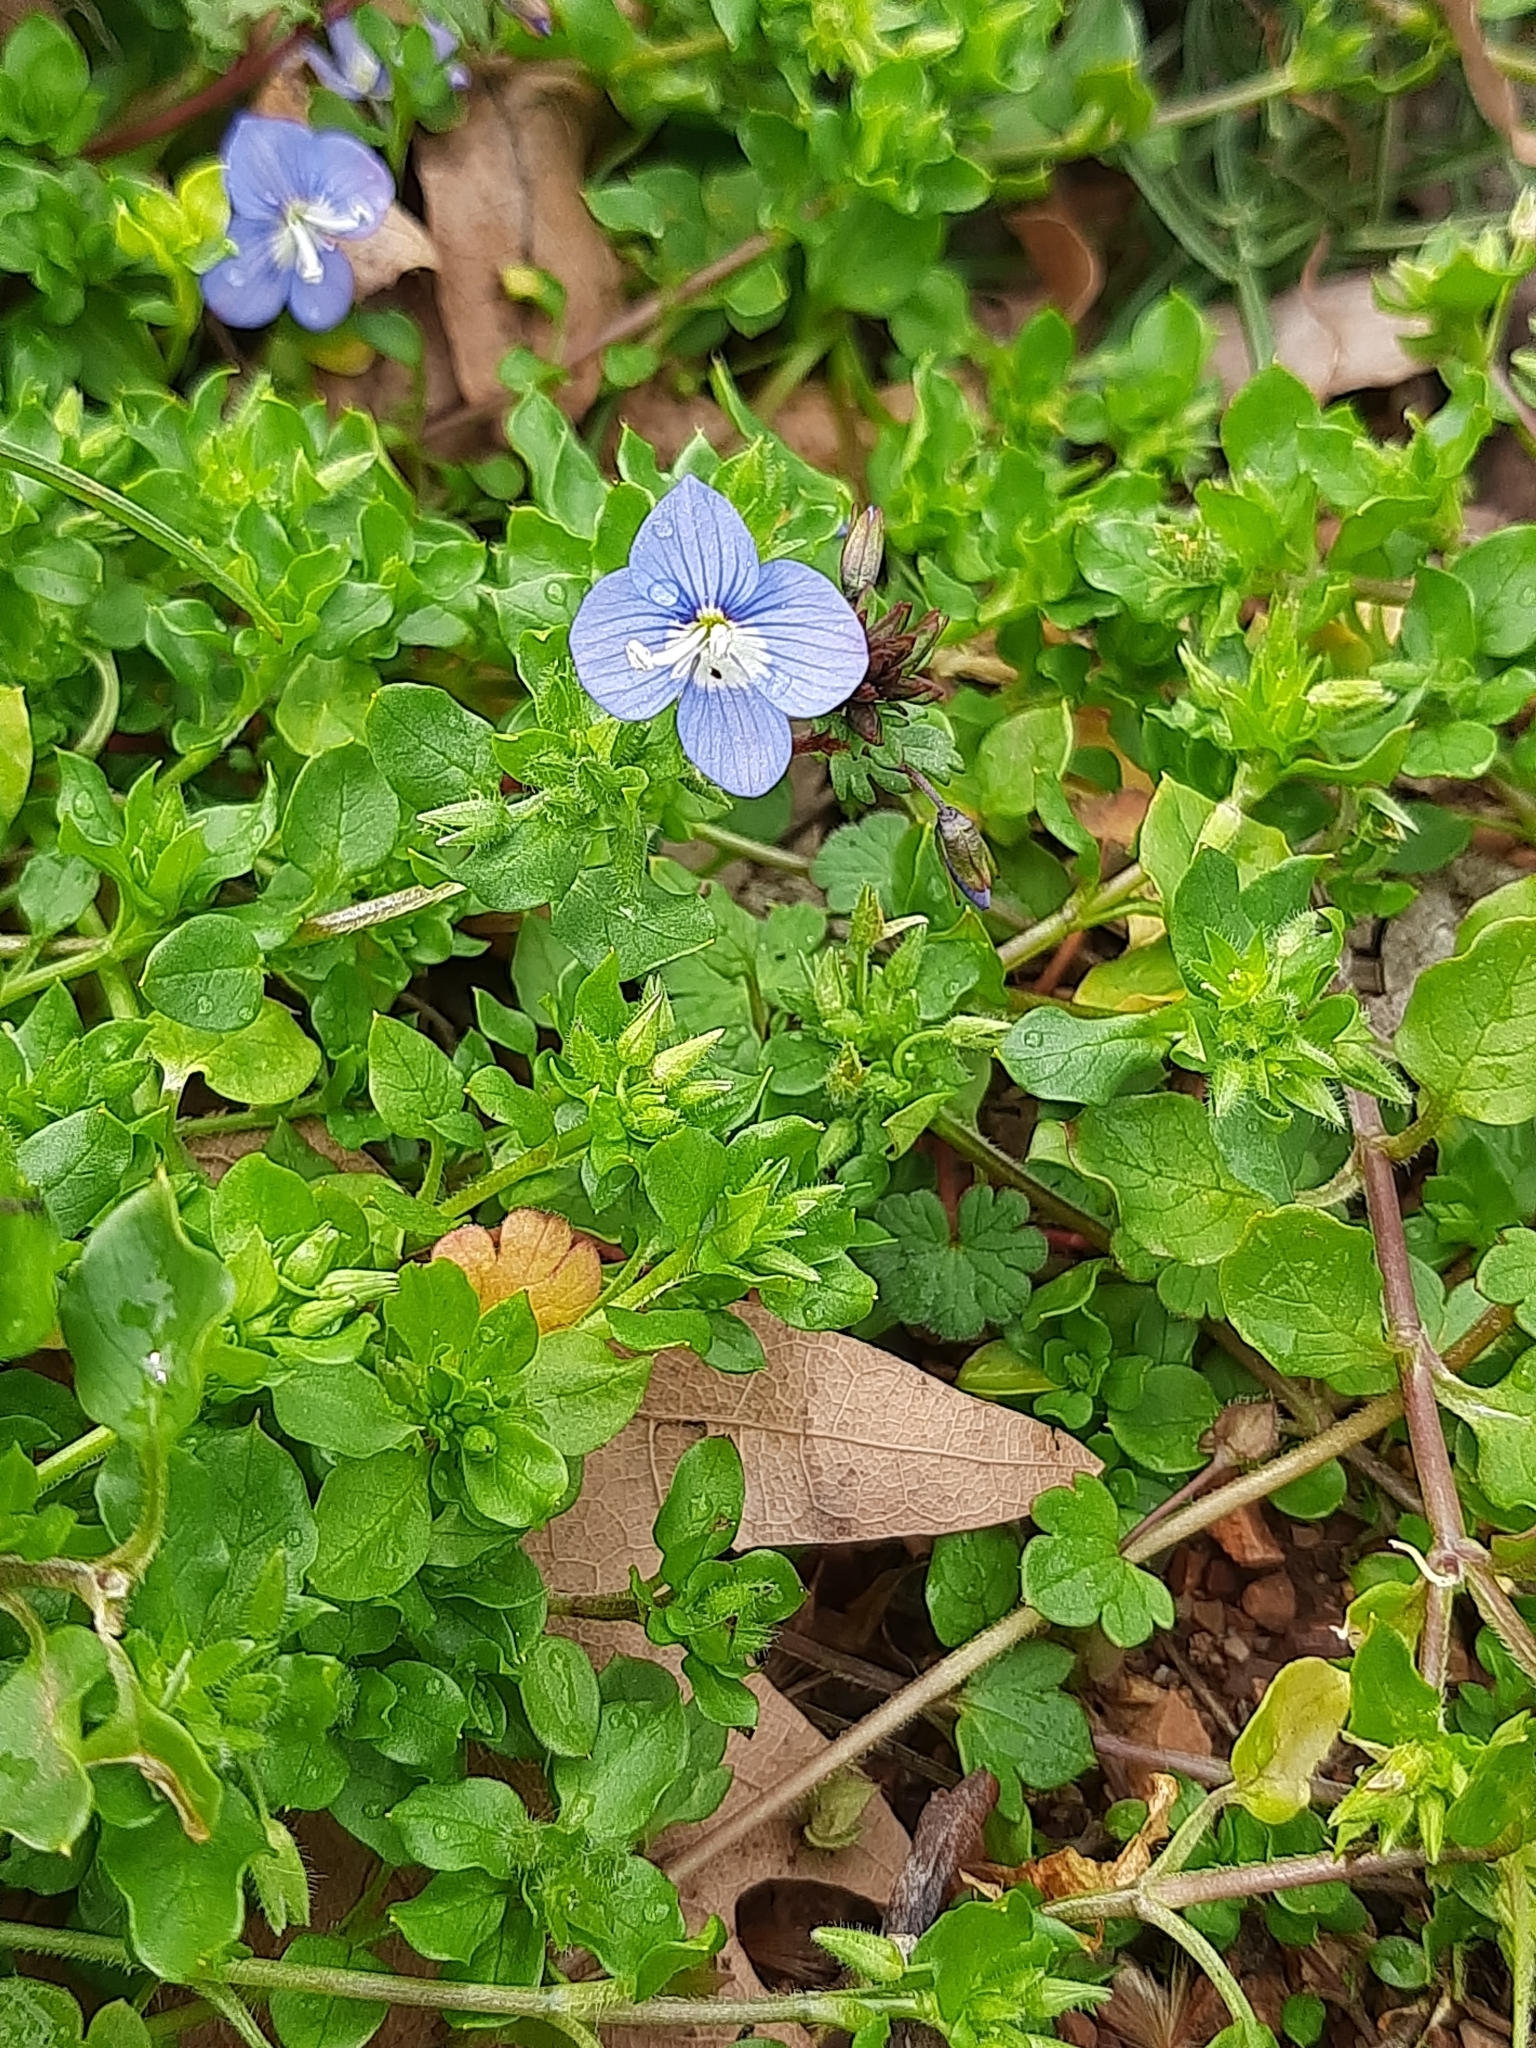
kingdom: Plantae
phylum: Tracheophyta
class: Magnoliopsida
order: Lamiales
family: Plantaginaceae
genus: Veronica
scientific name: Veronica glauca
